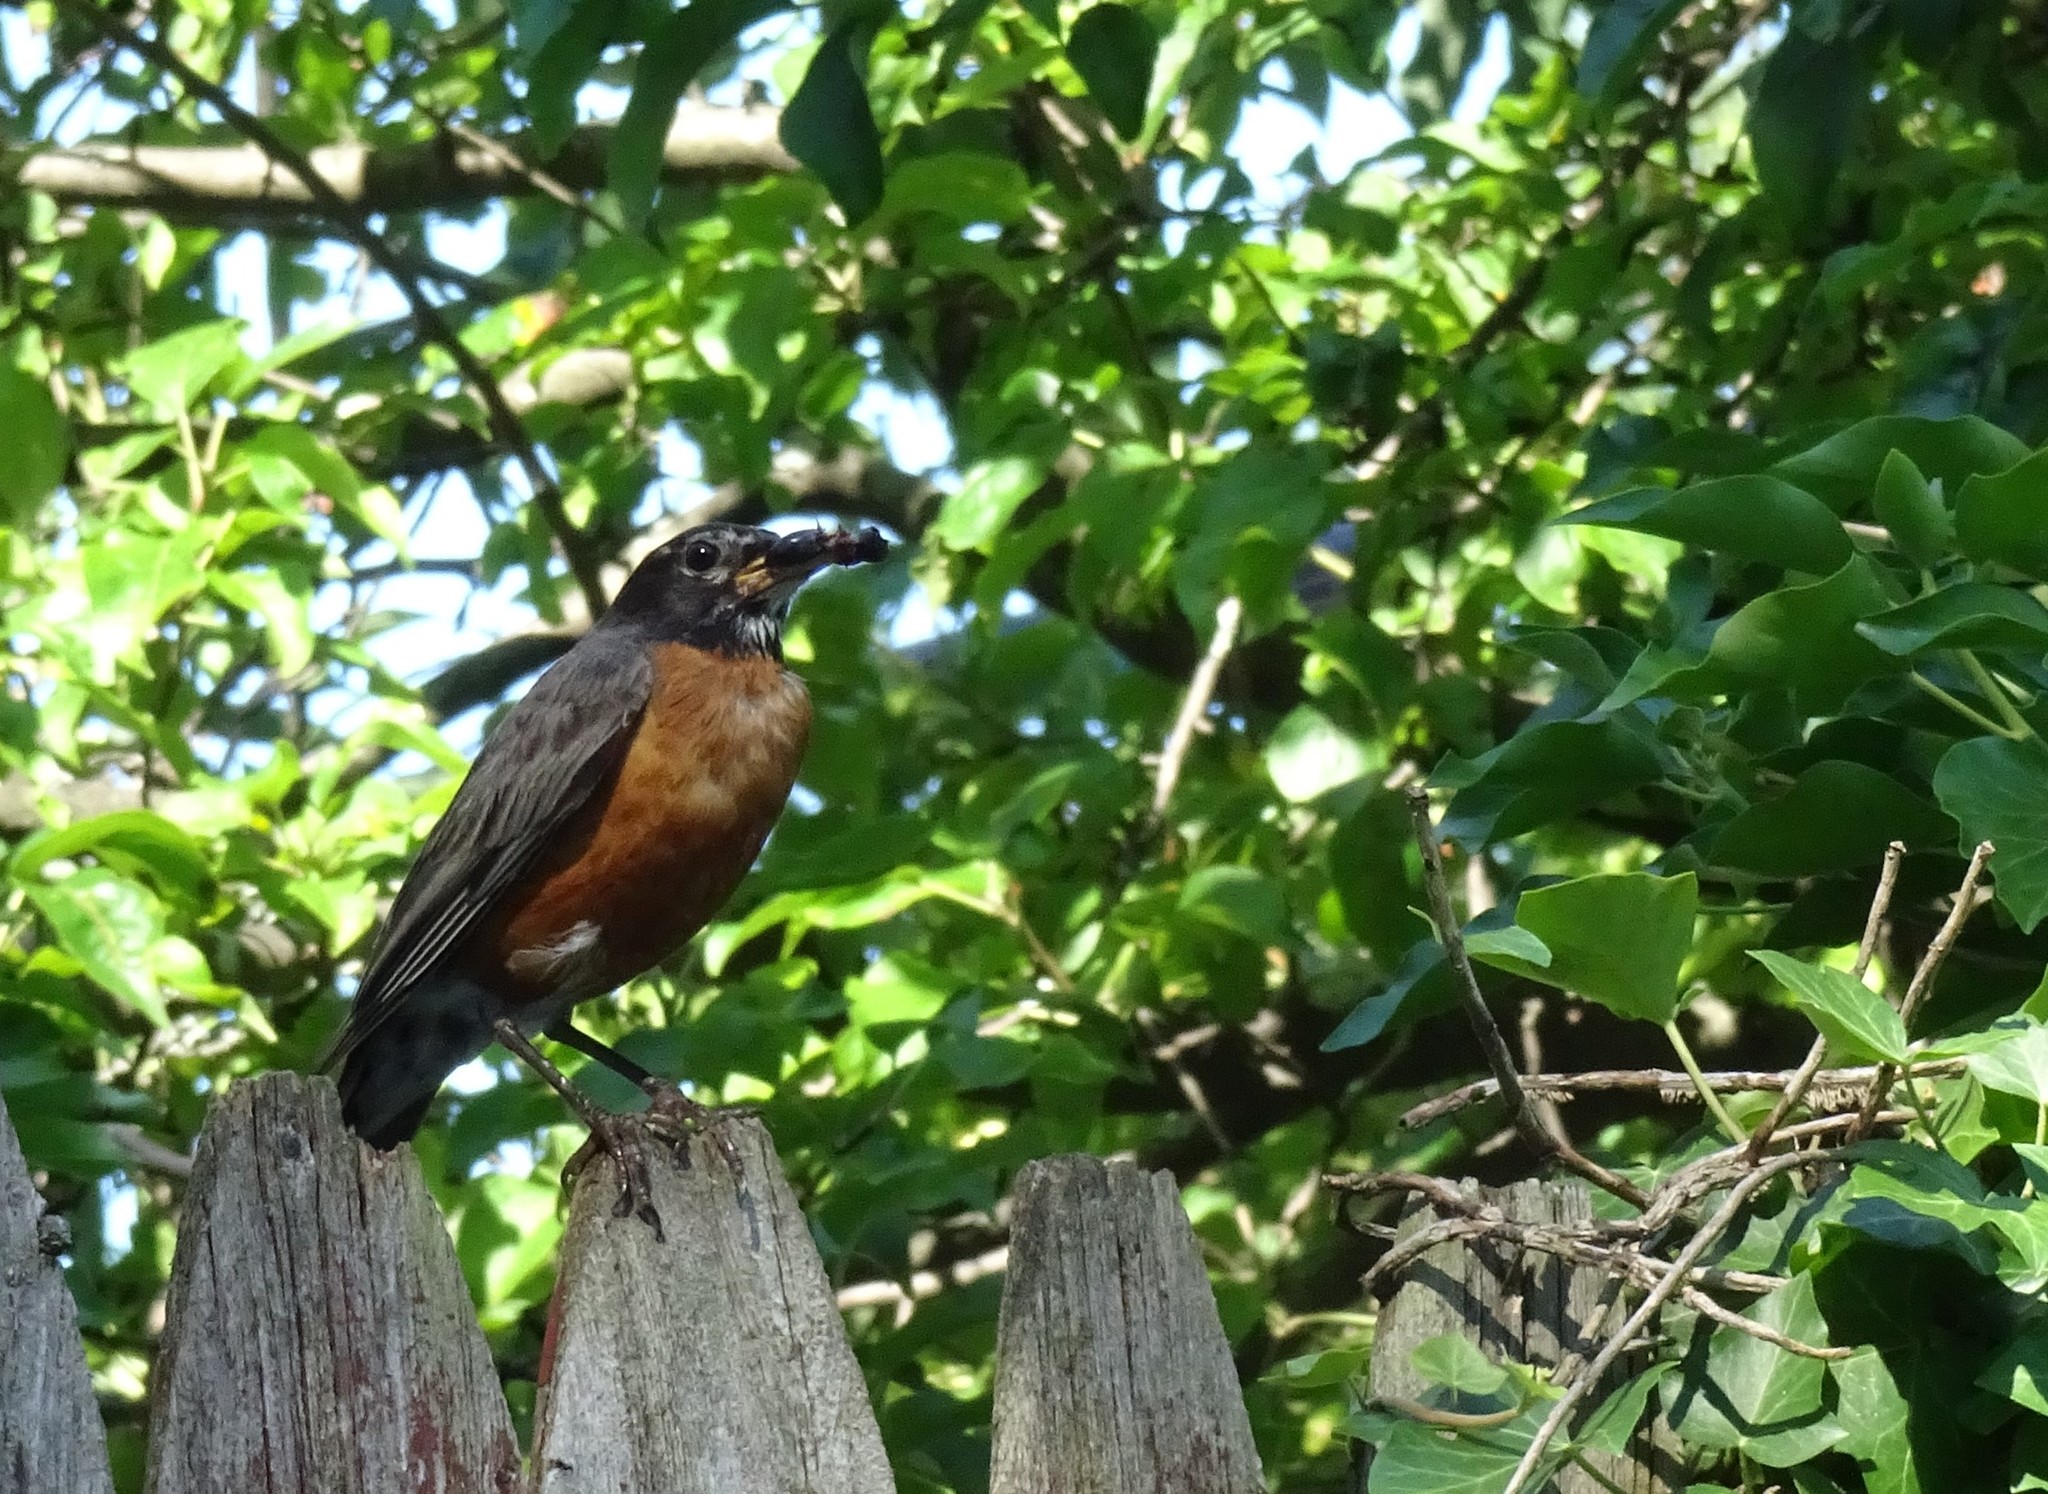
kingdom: Animalia
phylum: Chordata
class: Aves
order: Passeriformes
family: Turdidae
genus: Turdus
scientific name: Turdus migratorius
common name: American robin
